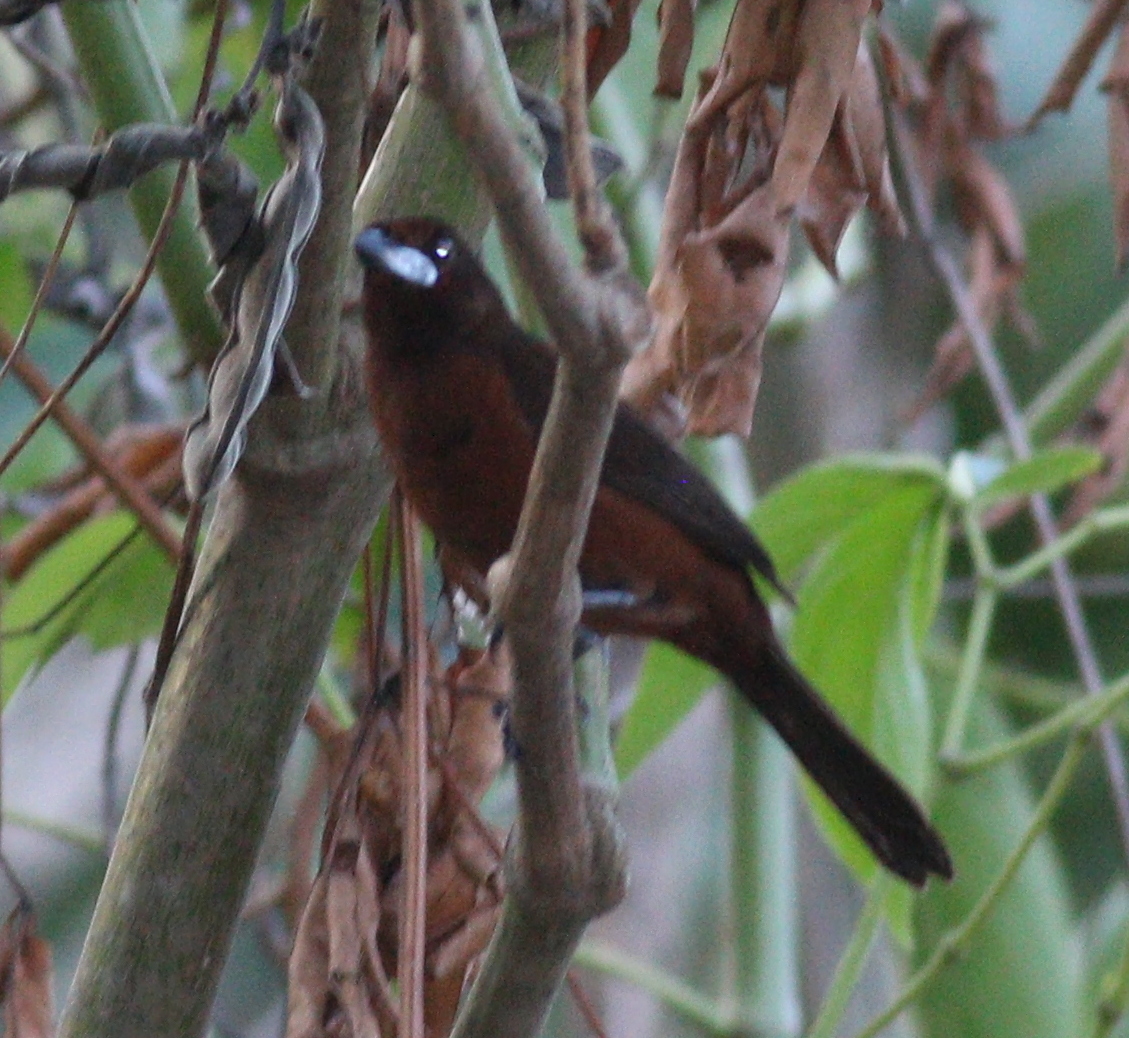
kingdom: Animalia
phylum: Chordata
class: Aves
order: Passeriformes
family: Thraupidae
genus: Ramphocelus
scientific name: Ramphocelus carbo
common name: Silver-beaked tanager
